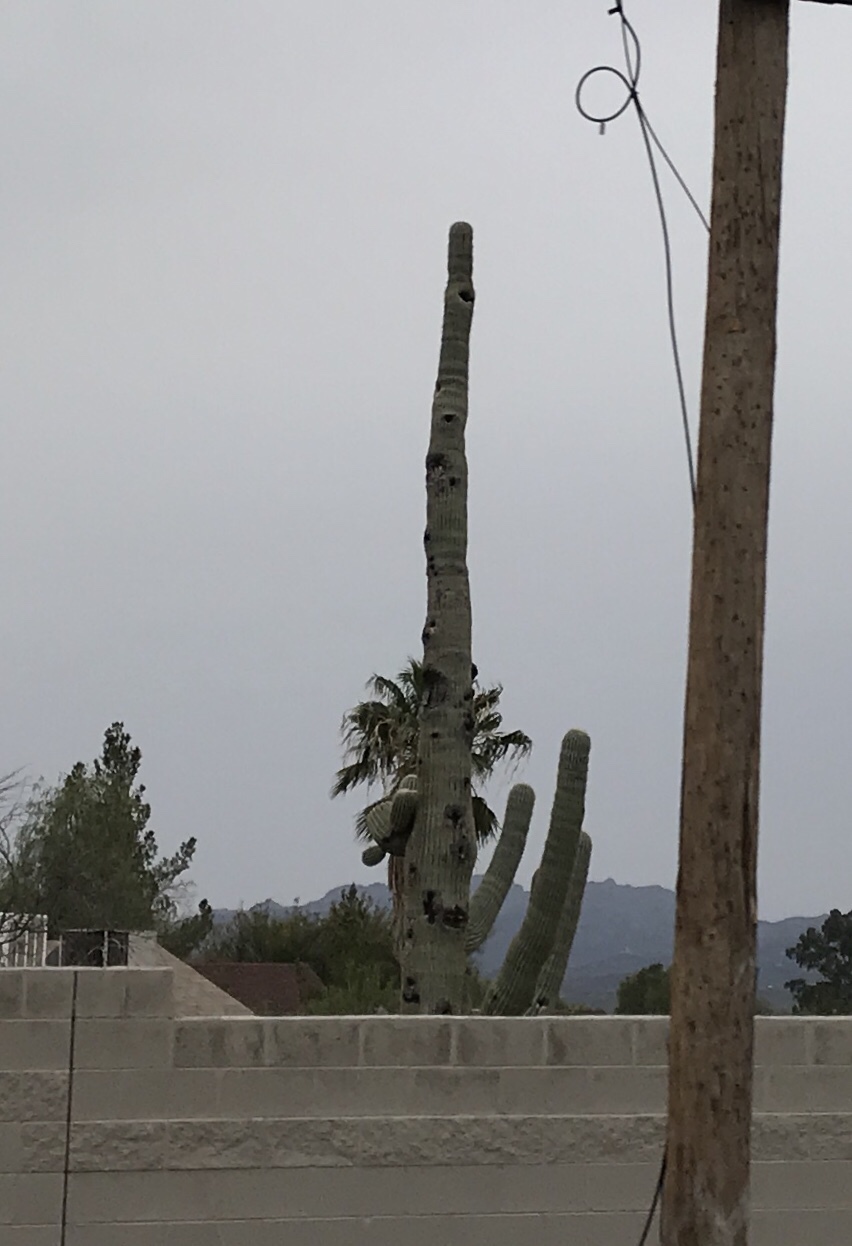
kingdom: Plantae
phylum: Tracheophyta
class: Magnoliopsida
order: Caryophyllales
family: Cactaceae
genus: Carnegiea
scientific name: Carnegiea gigantea
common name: Saguaro
